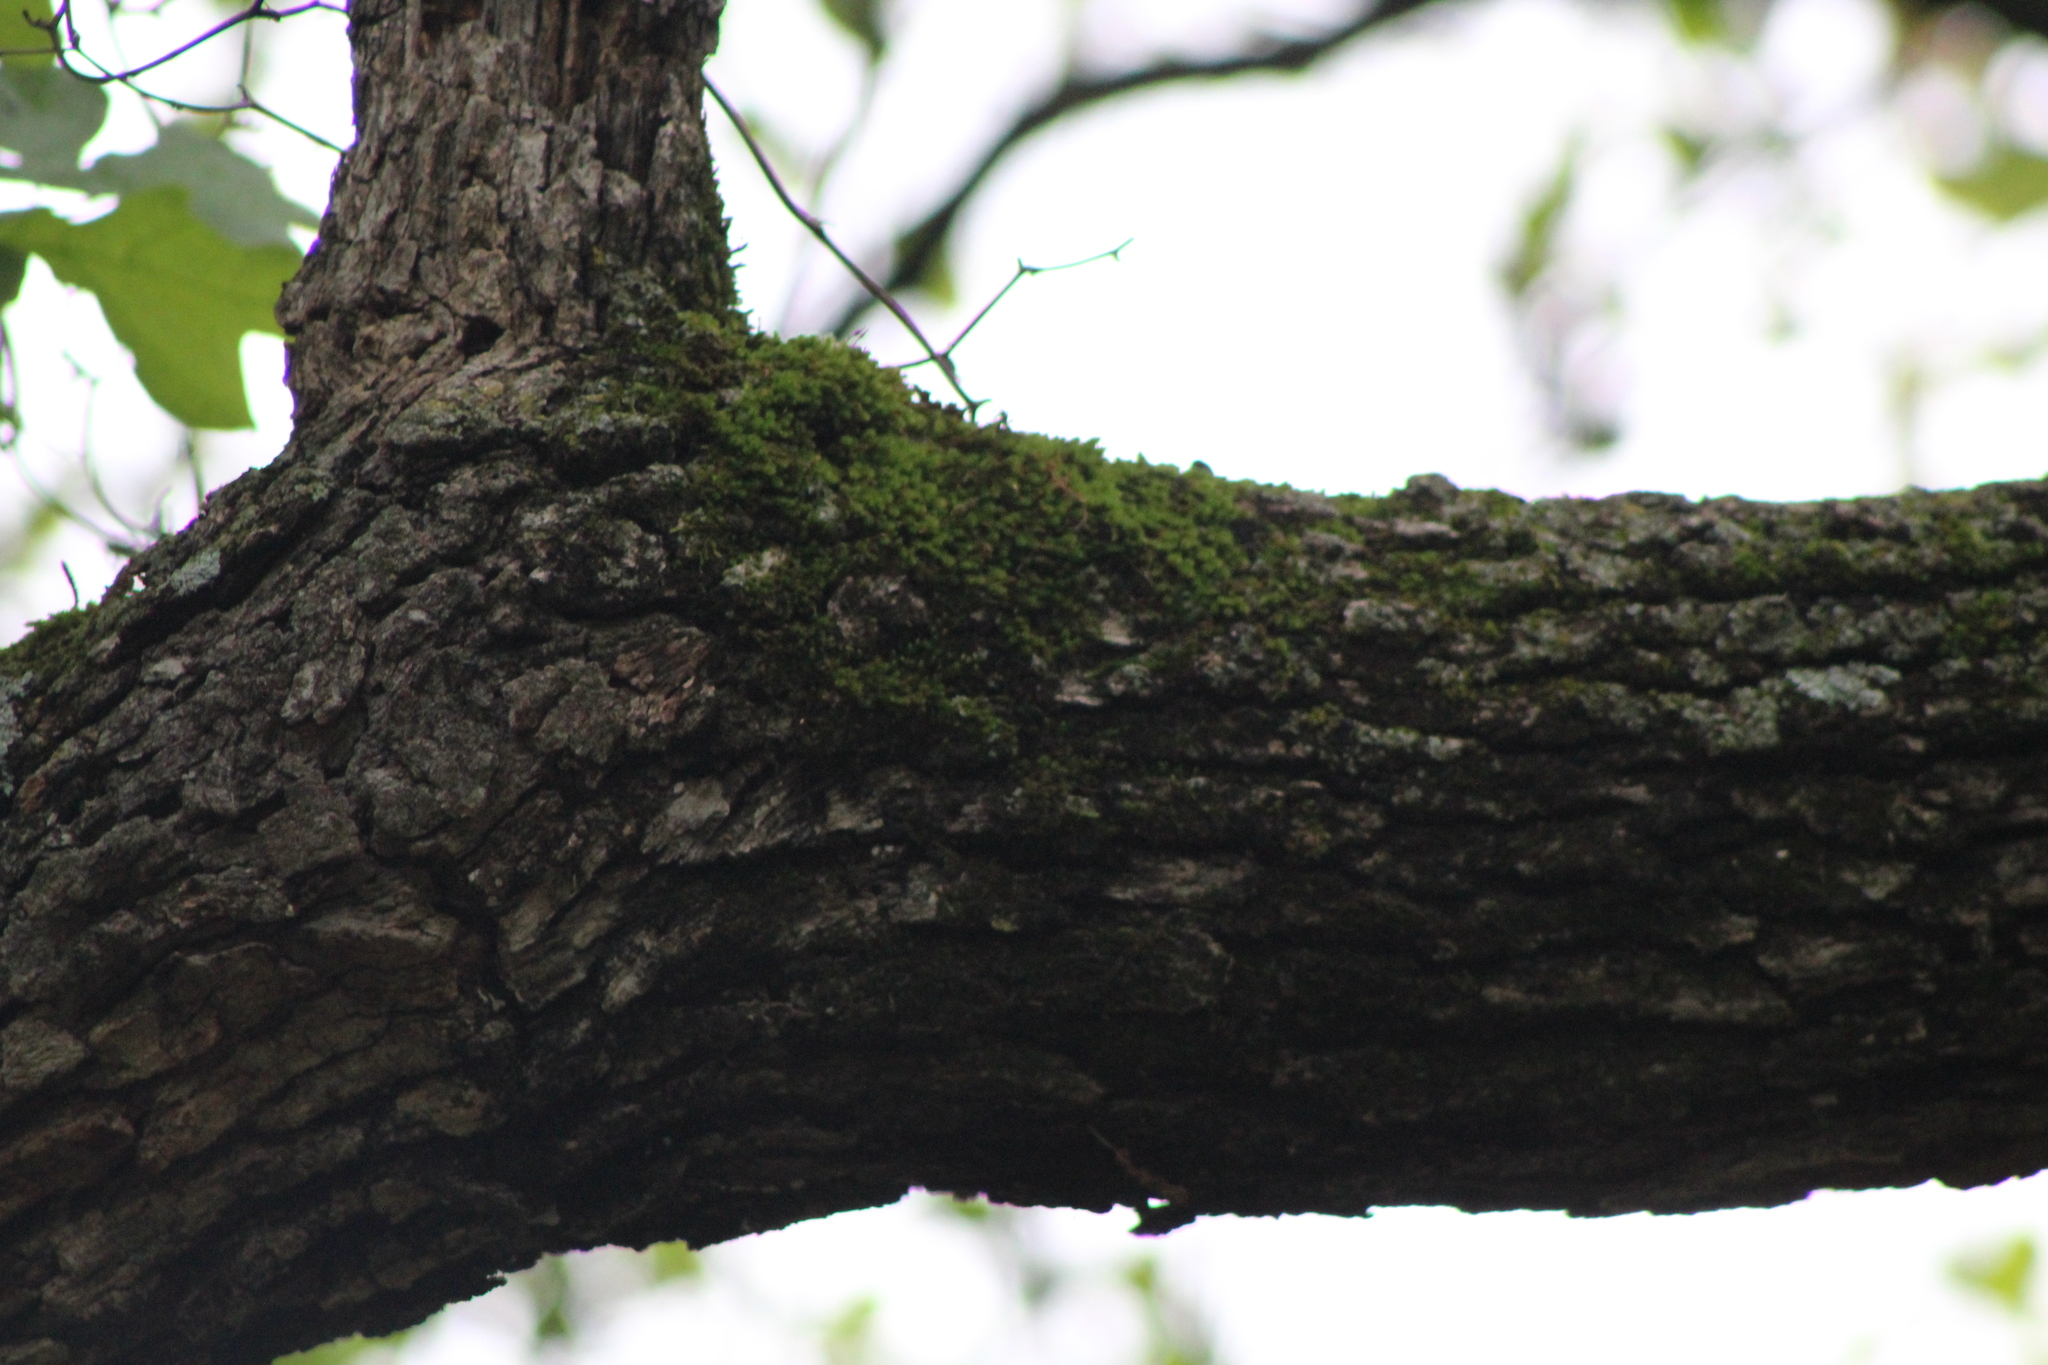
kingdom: Plantae
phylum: Tracheophyta
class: Magnoliopsida
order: Fagales
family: Fagaceae
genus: Quercus
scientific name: Quercus stellata
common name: Post oak
